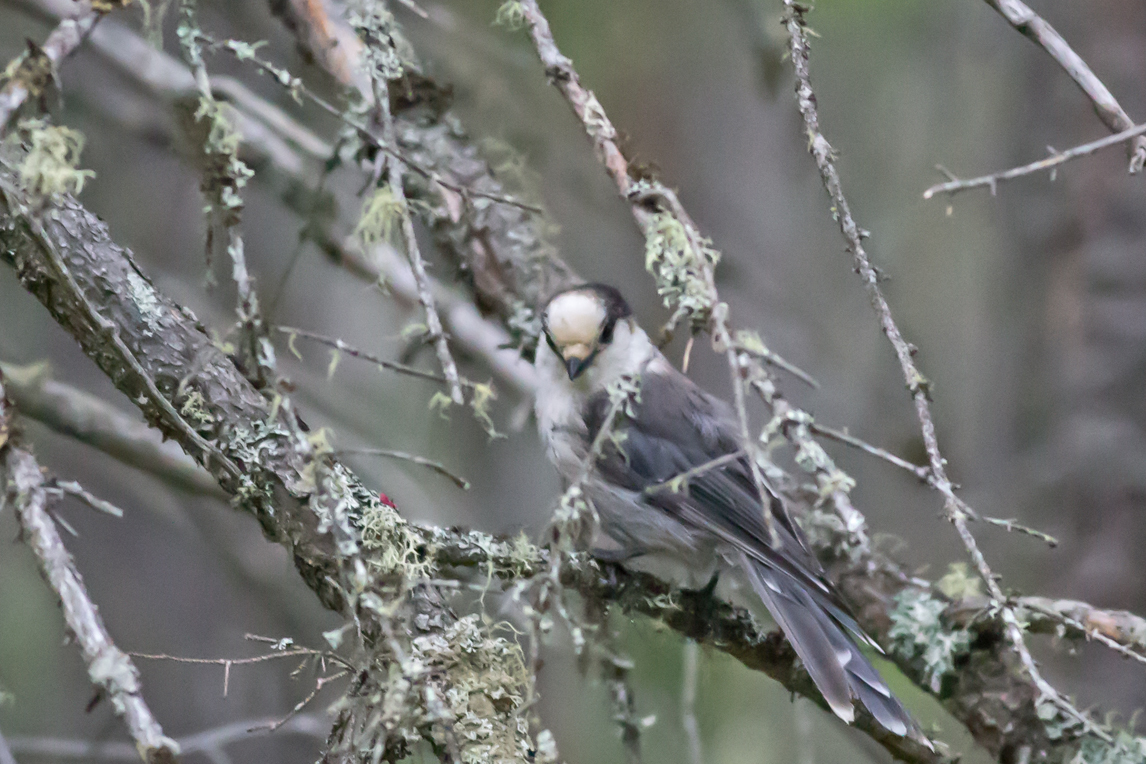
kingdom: Animalia
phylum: Chordata
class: Aves
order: Passeriformes
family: Corvidae
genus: Perisoreus
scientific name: Perisoreus canadensis
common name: Gray jay
